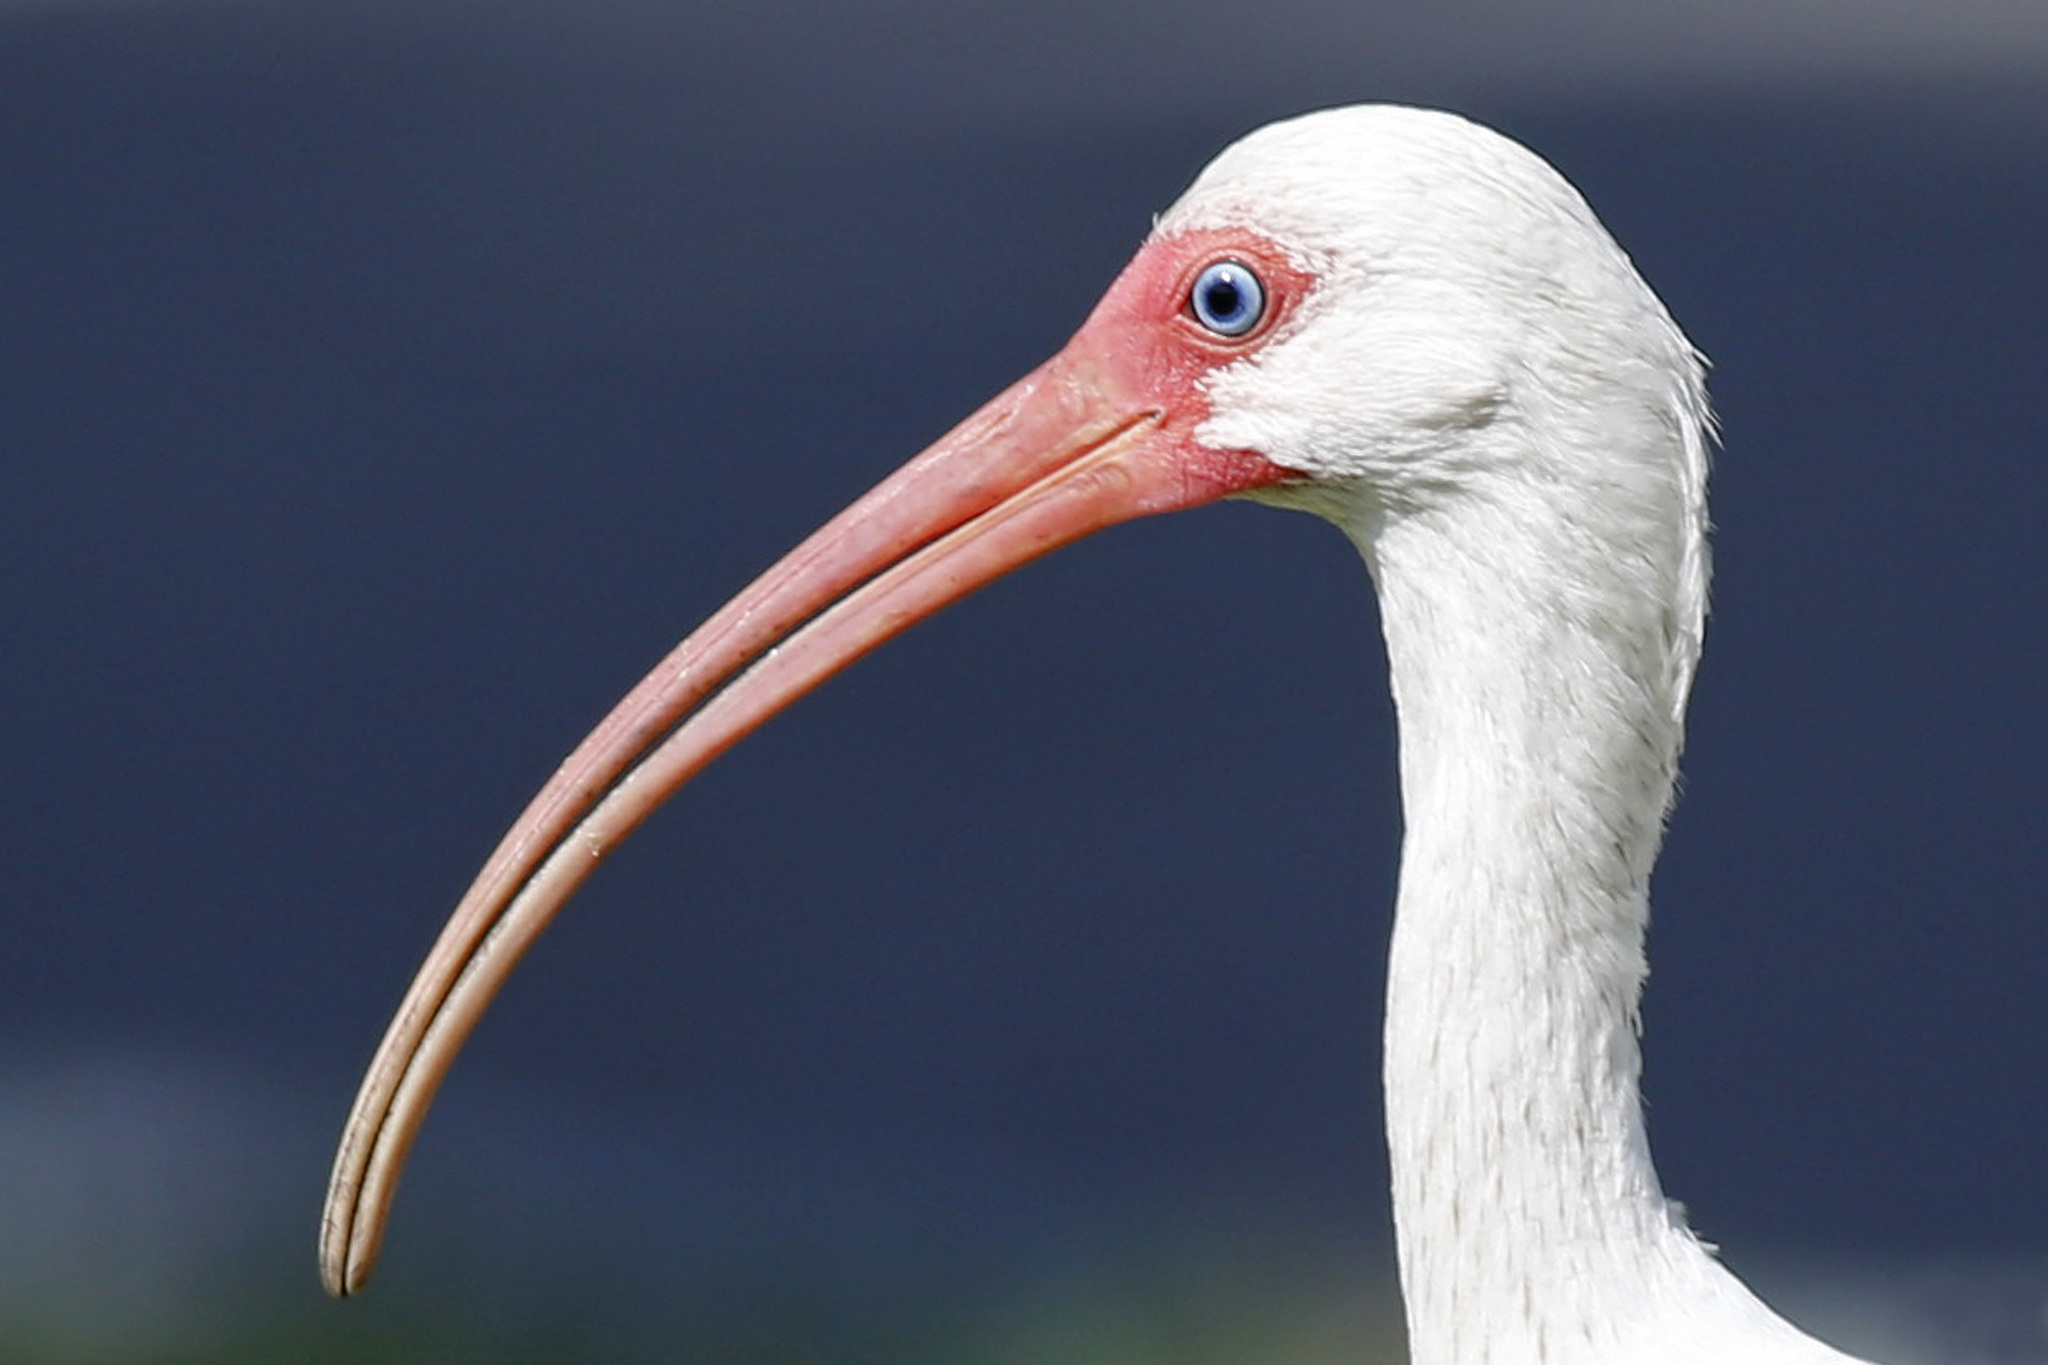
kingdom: Animalia
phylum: Chordata
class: Aves
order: Pelecaniformes
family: Threskiornithidae
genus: Eudocimus
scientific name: Eudocimus albus
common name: White ibis
